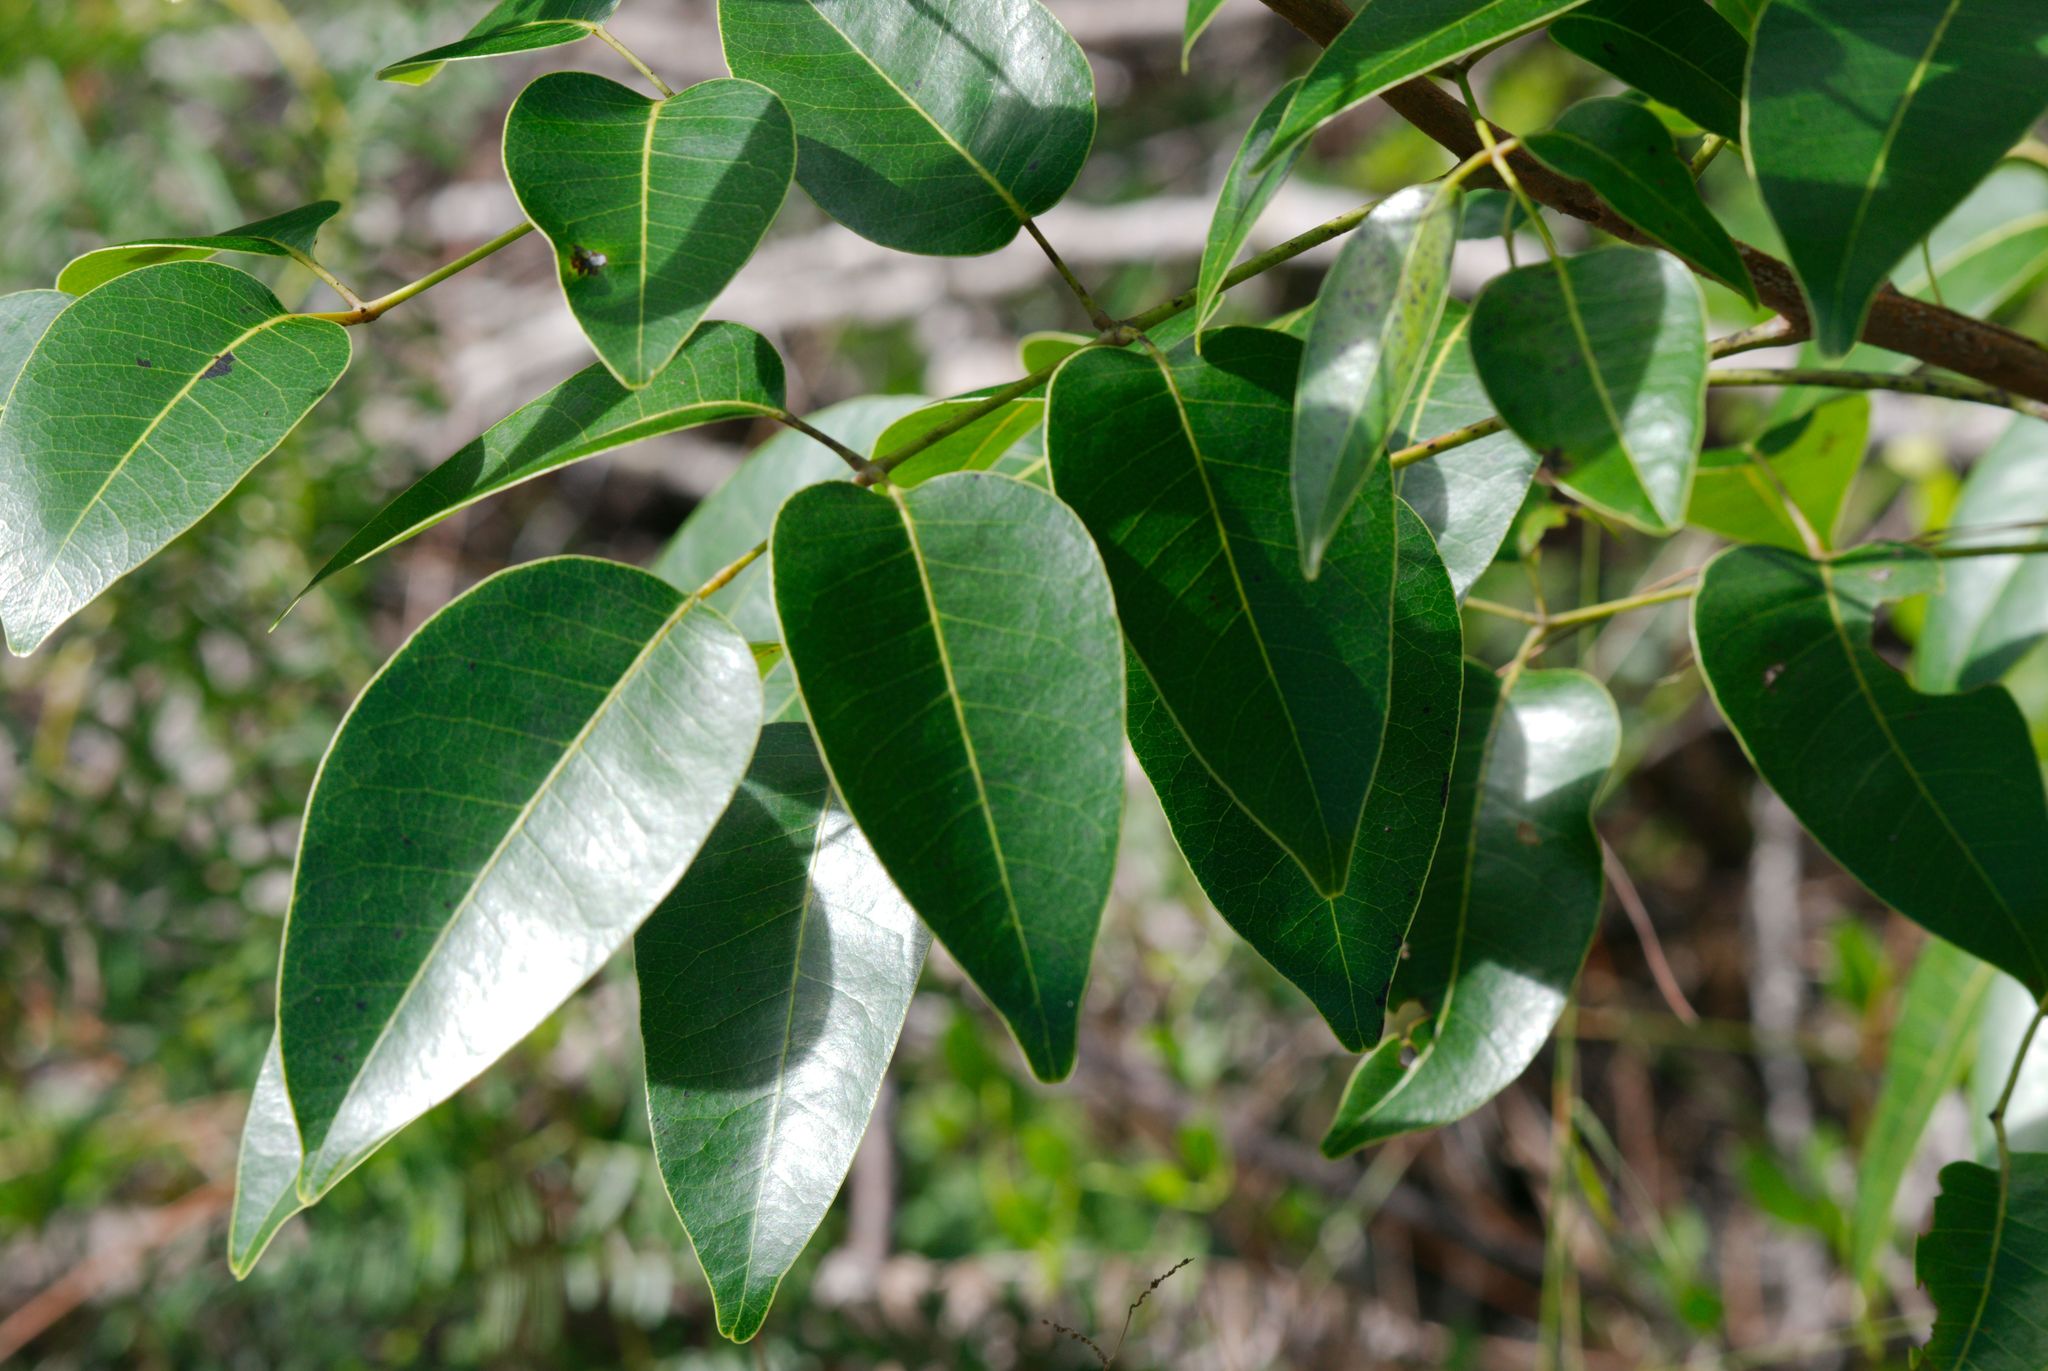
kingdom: Plantae
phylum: Tracheophyta
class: Magnoliopsida
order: Sapindales
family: Anacardiaceae
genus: Metopium
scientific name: Metopium toxiferum
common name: Florida poisontree
